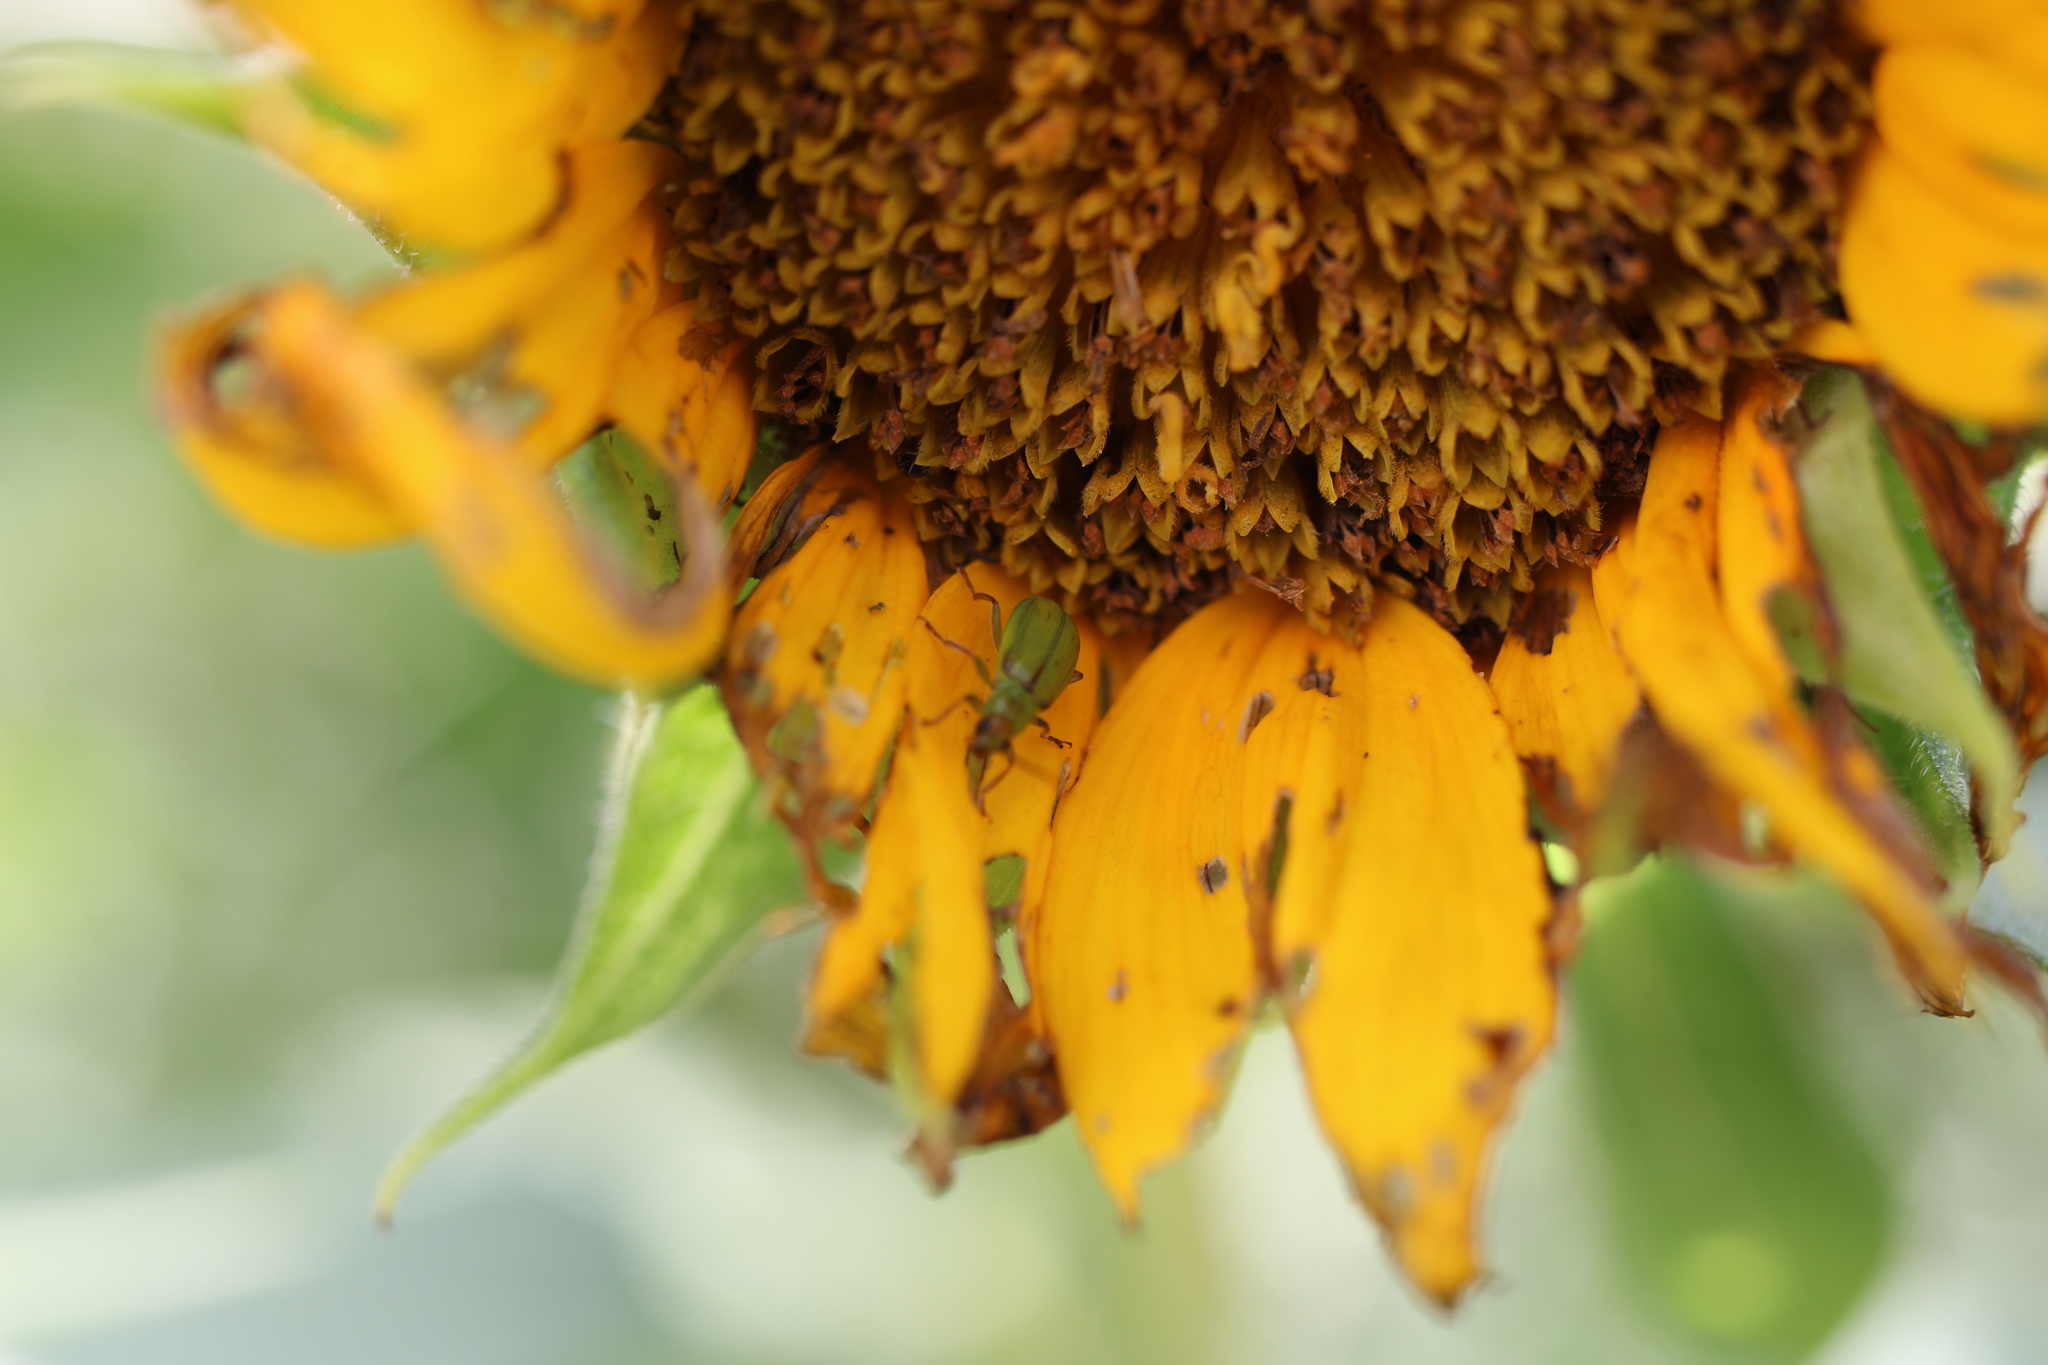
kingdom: Animalia
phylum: Arthropoda
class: Insecta
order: Coleoptera
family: Chrysomelidae
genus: Diabrotica
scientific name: Diabrotica barberi
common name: Northern corn rootworm
